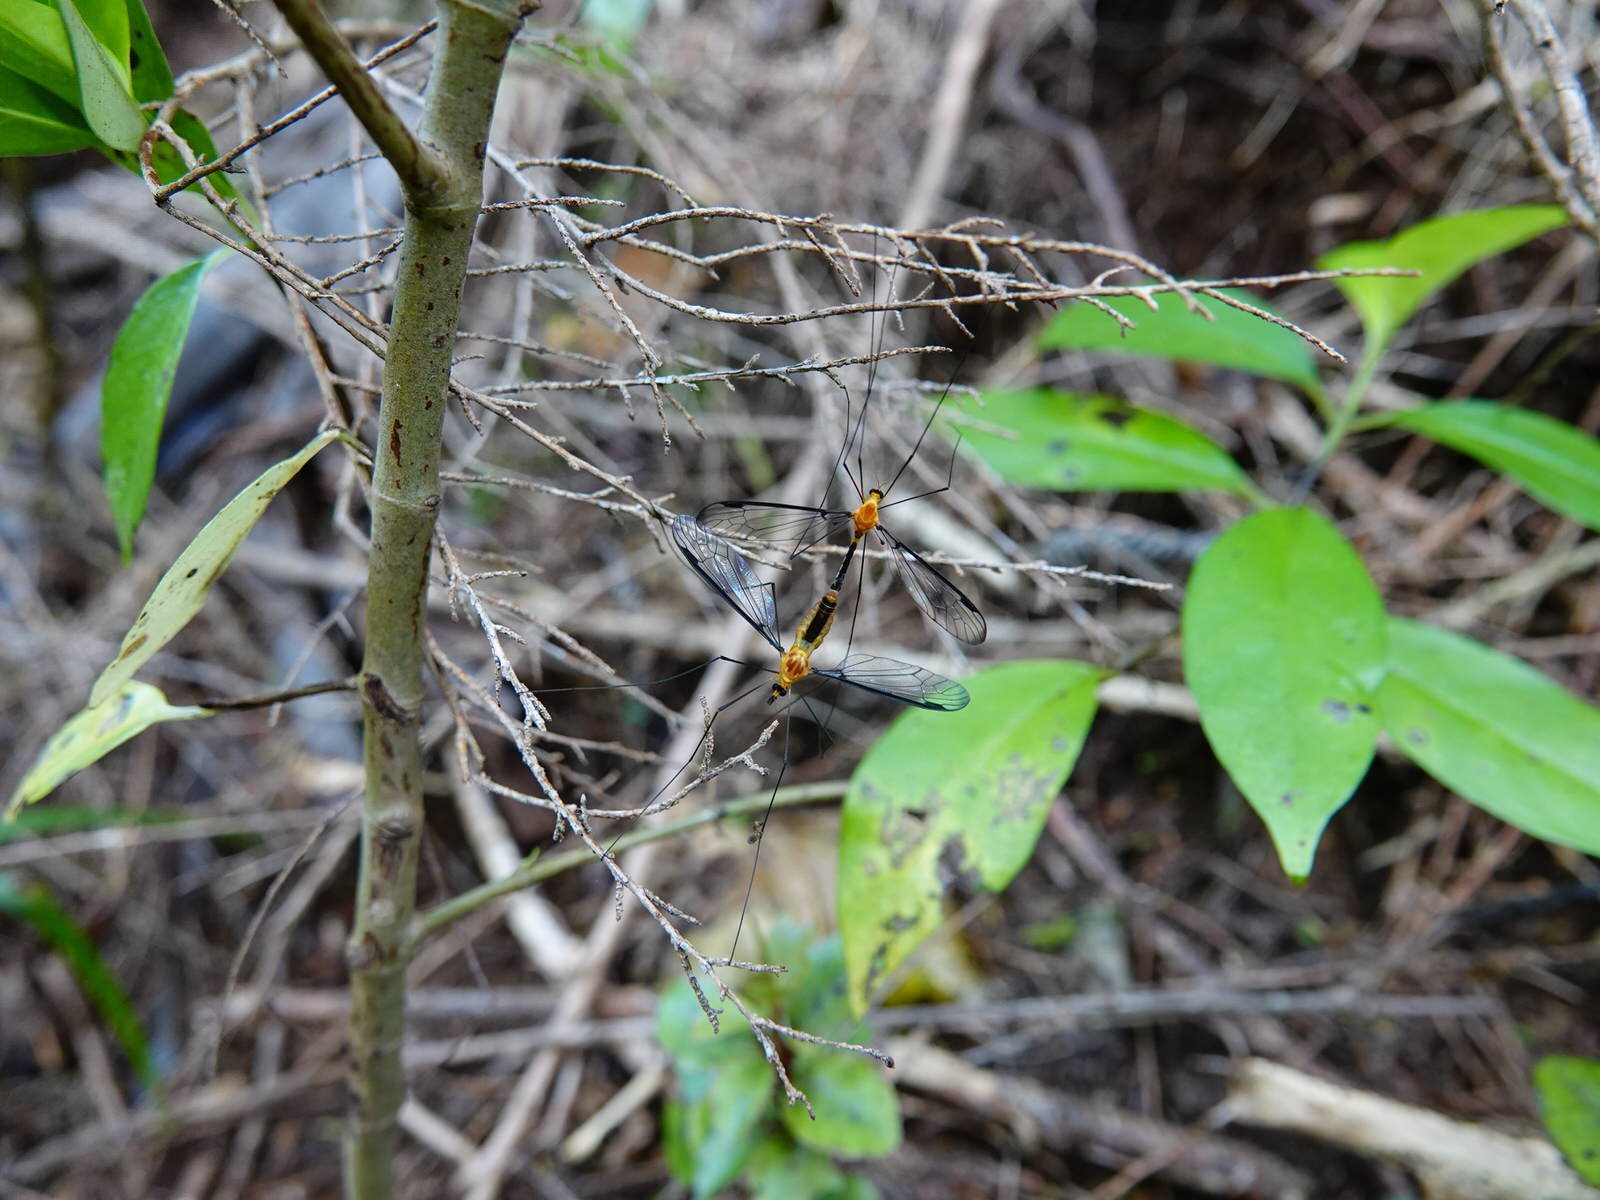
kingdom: Animalia
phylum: Arthropoda
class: Insecta
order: Diptera
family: Tipulidae
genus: Aurotipula
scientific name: Aurotipula
